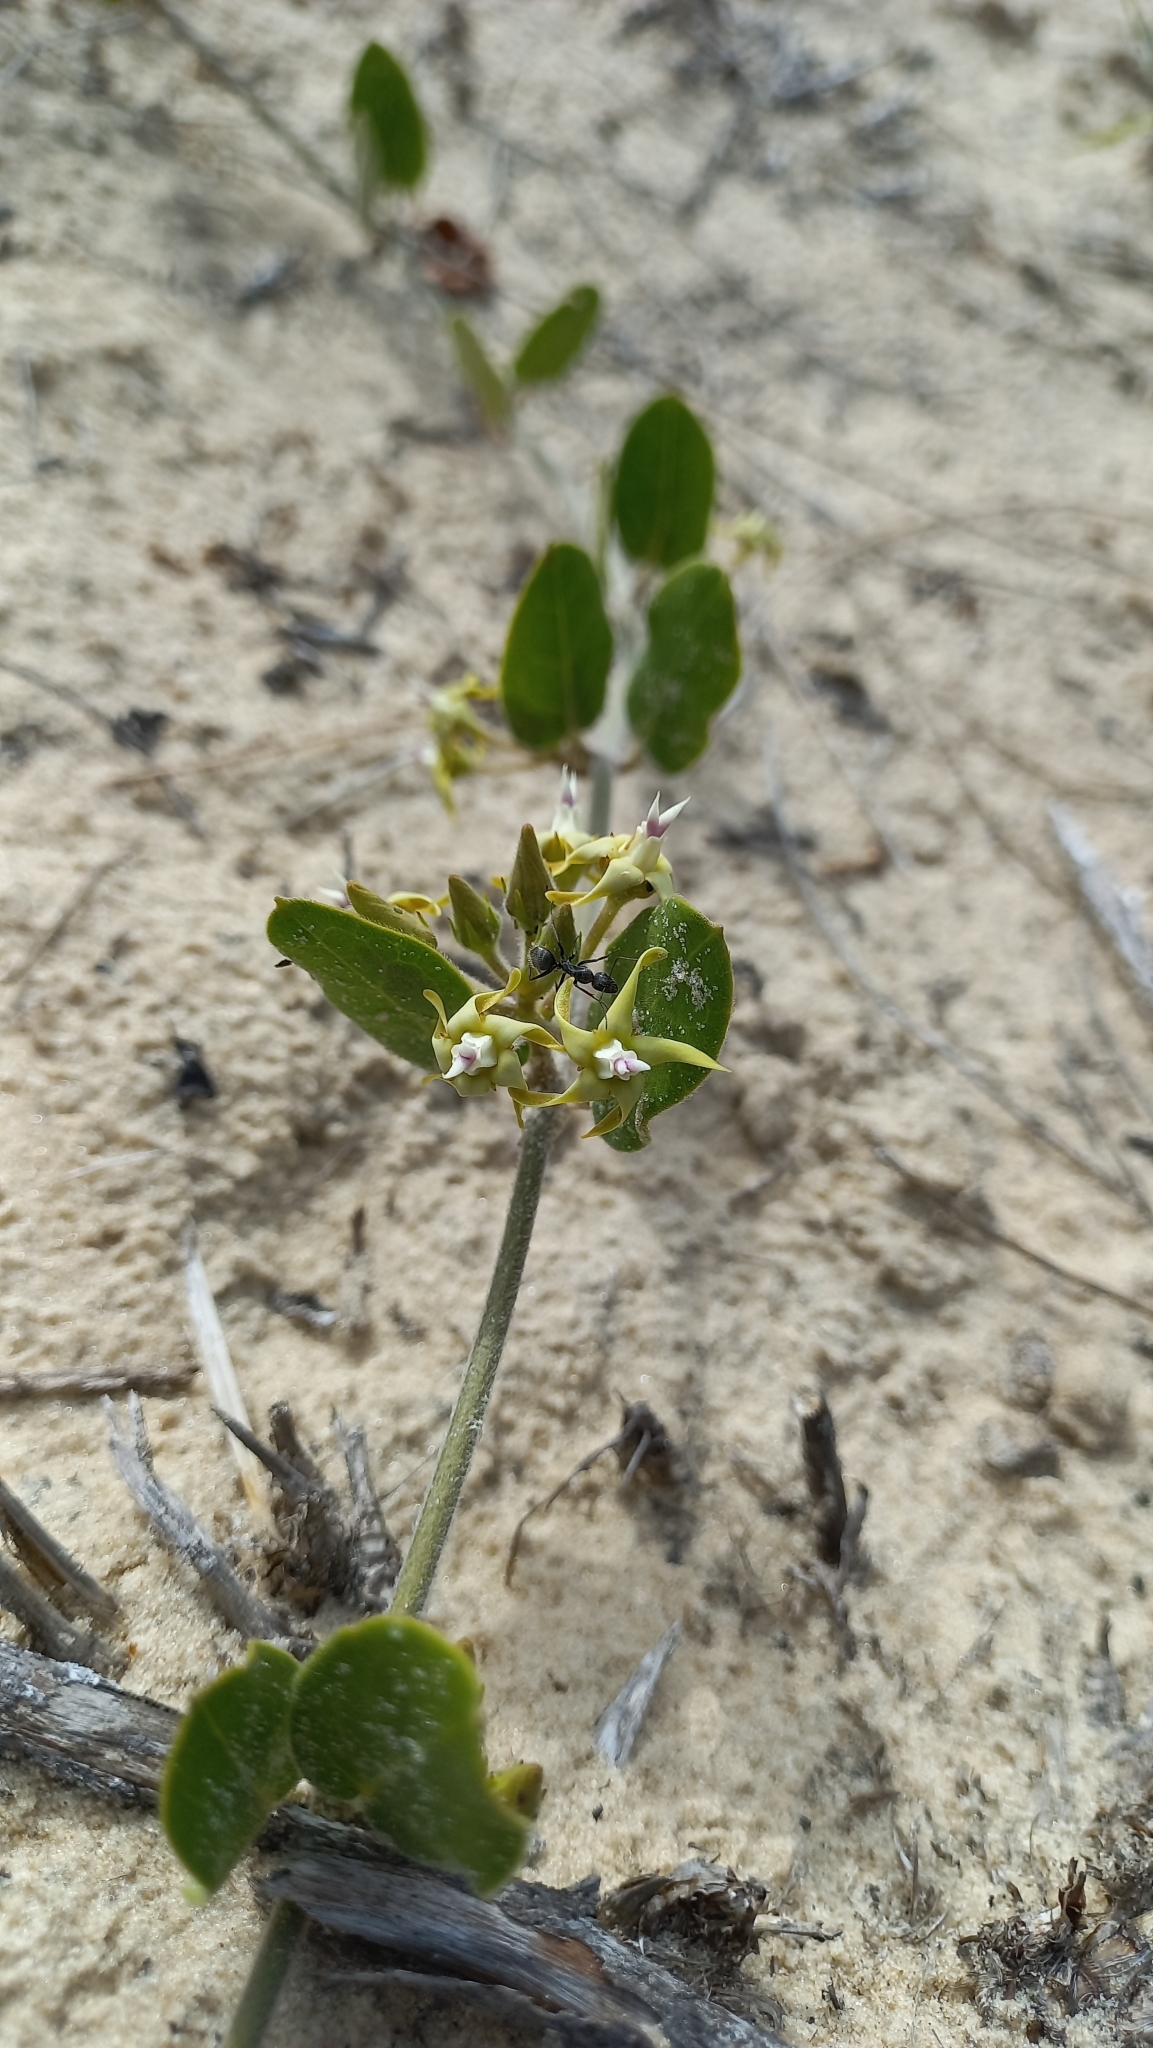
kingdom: Plantae
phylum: Tracheophyta
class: Magnoliopsida
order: Gentianales
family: Apocynaceae
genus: Oxypetalum
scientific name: Oxypetalum tomentosum
